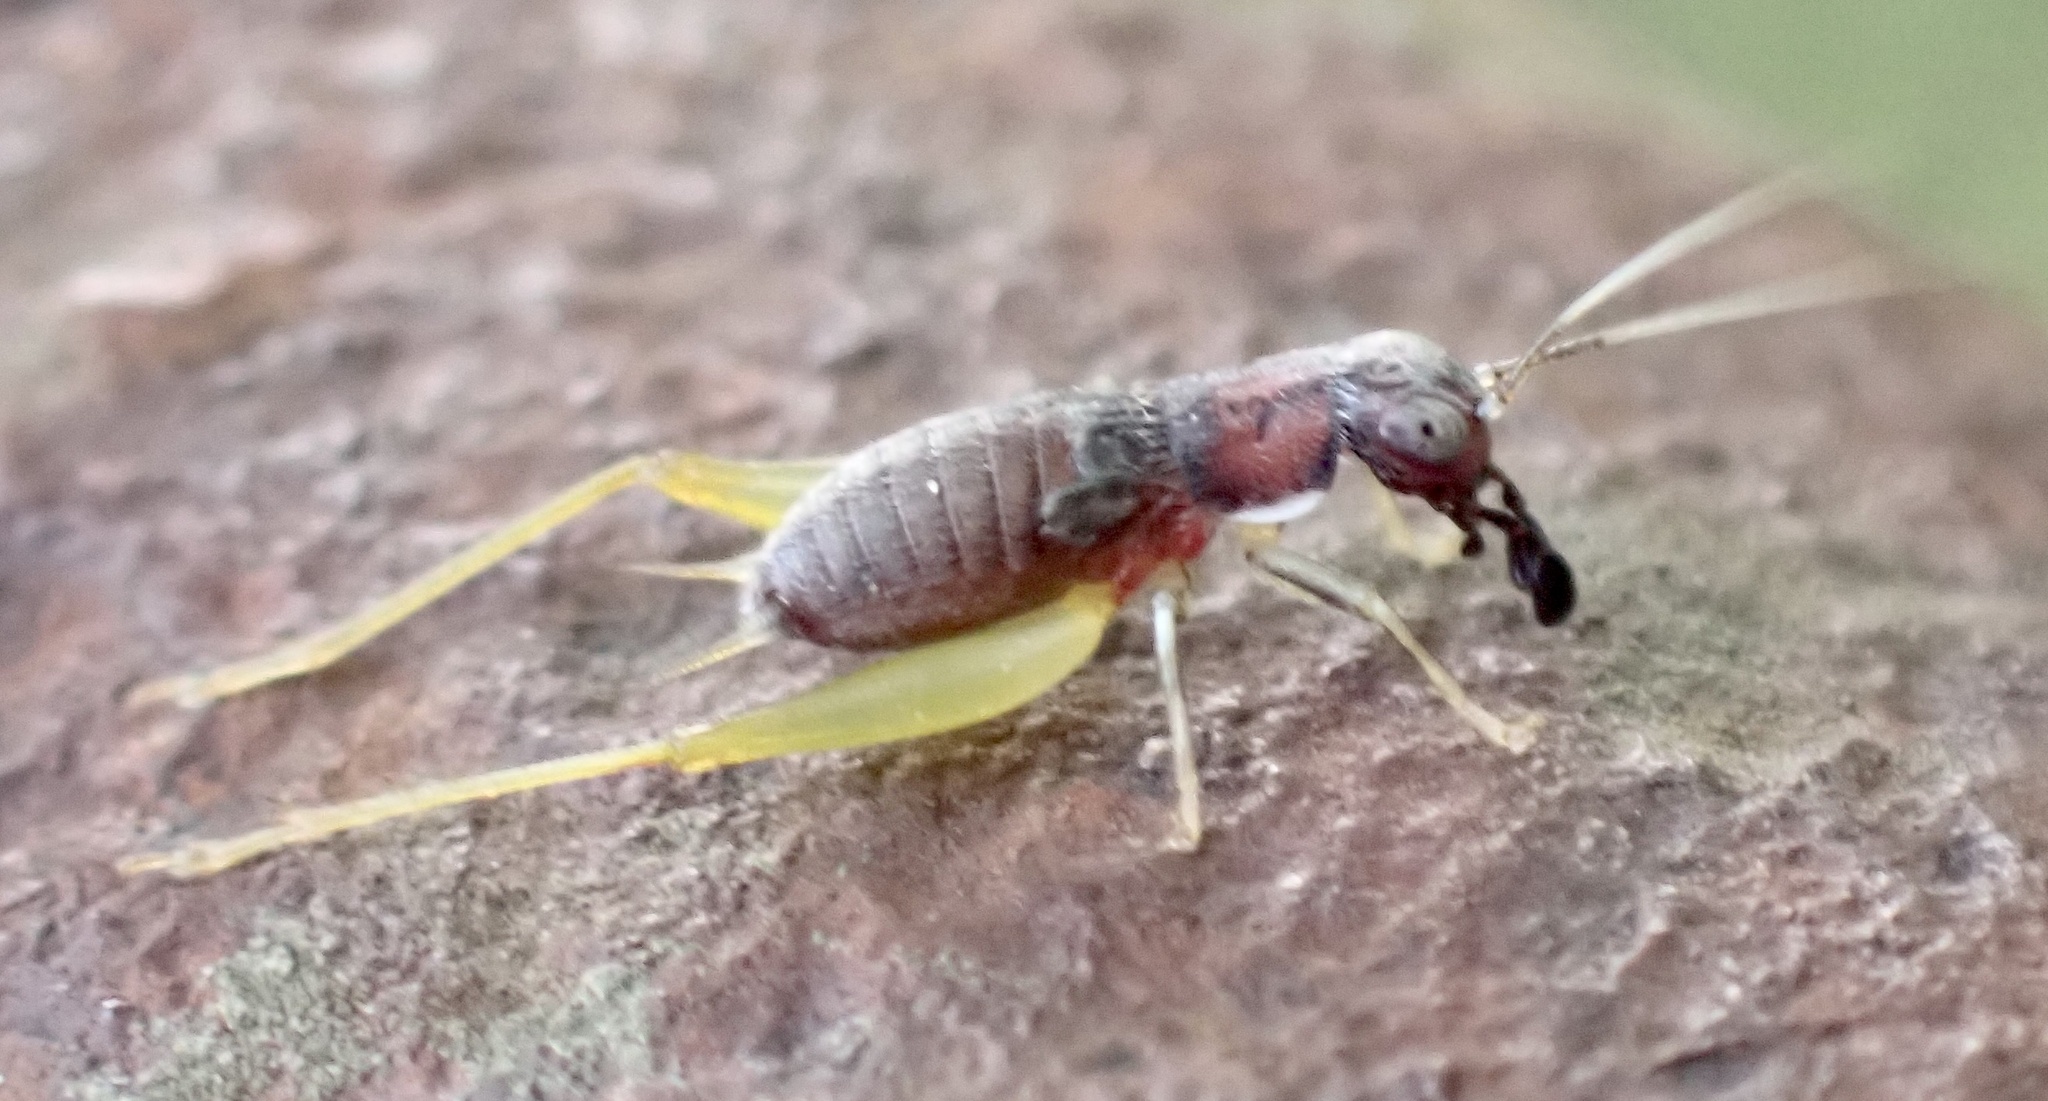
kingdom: Animalia
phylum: Arthropoda
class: Insecta
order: Orthoptera
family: Trigonidiidae
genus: Phyllopalpus
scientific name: Phyllopalpus pulchellus
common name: Handsome trig
